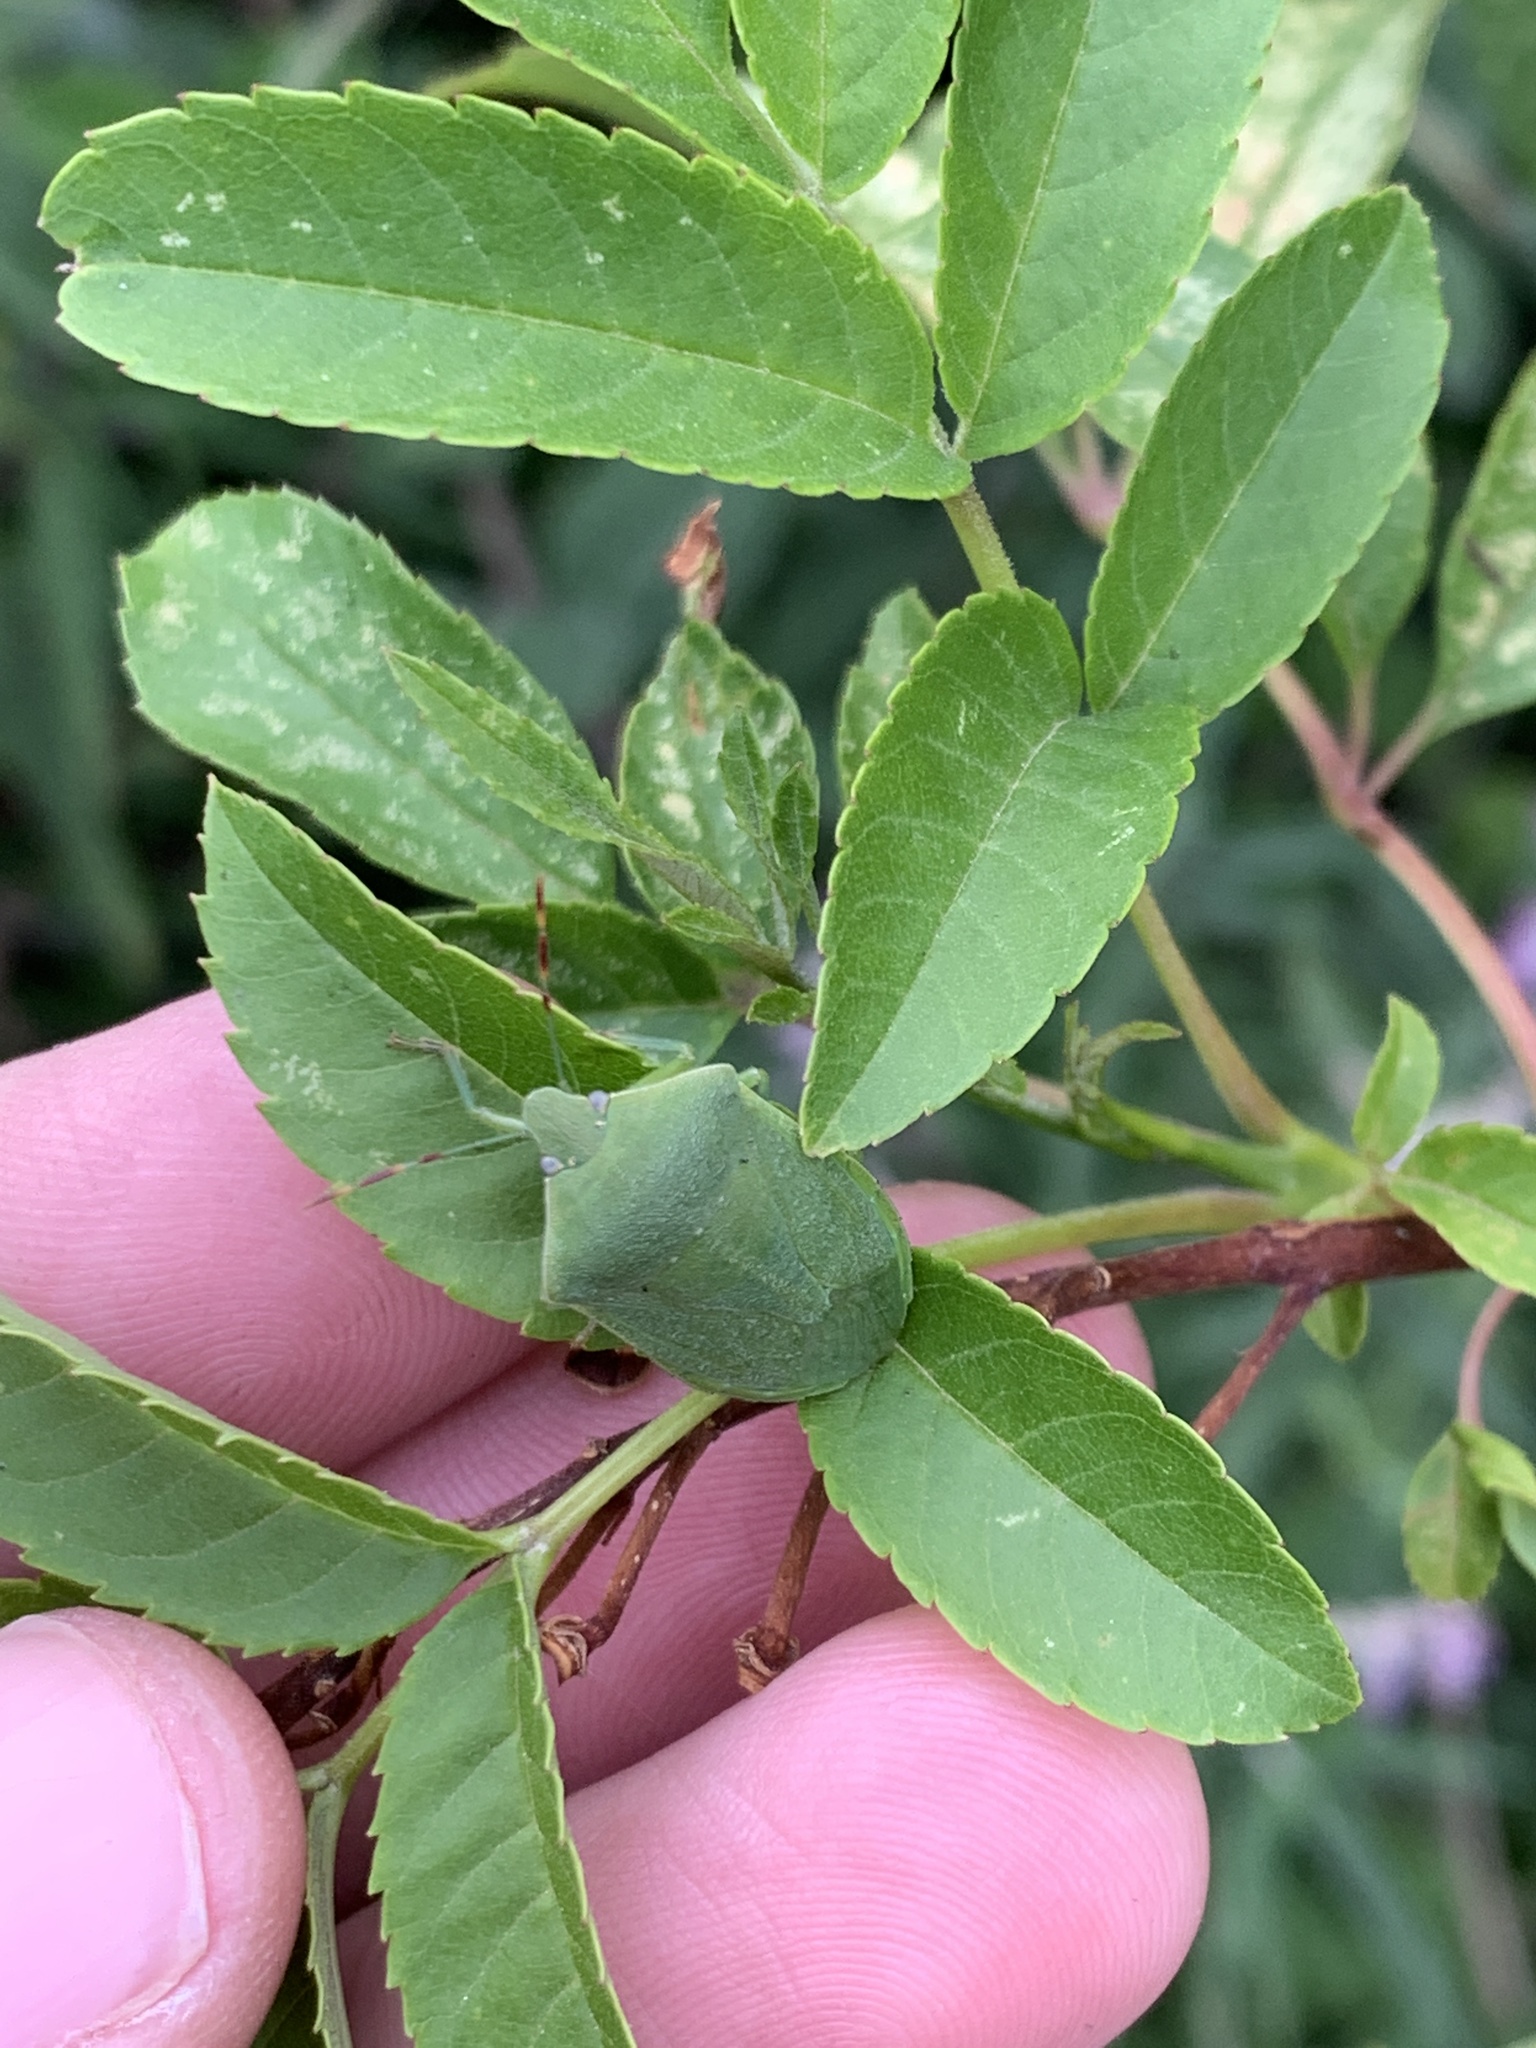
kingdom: Animalia
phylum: Arthropoda
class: Insecta
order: Hemiptera
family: Pentatomidae
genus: Nezara
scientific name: Nezara viridula
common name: Southern green stink bug
